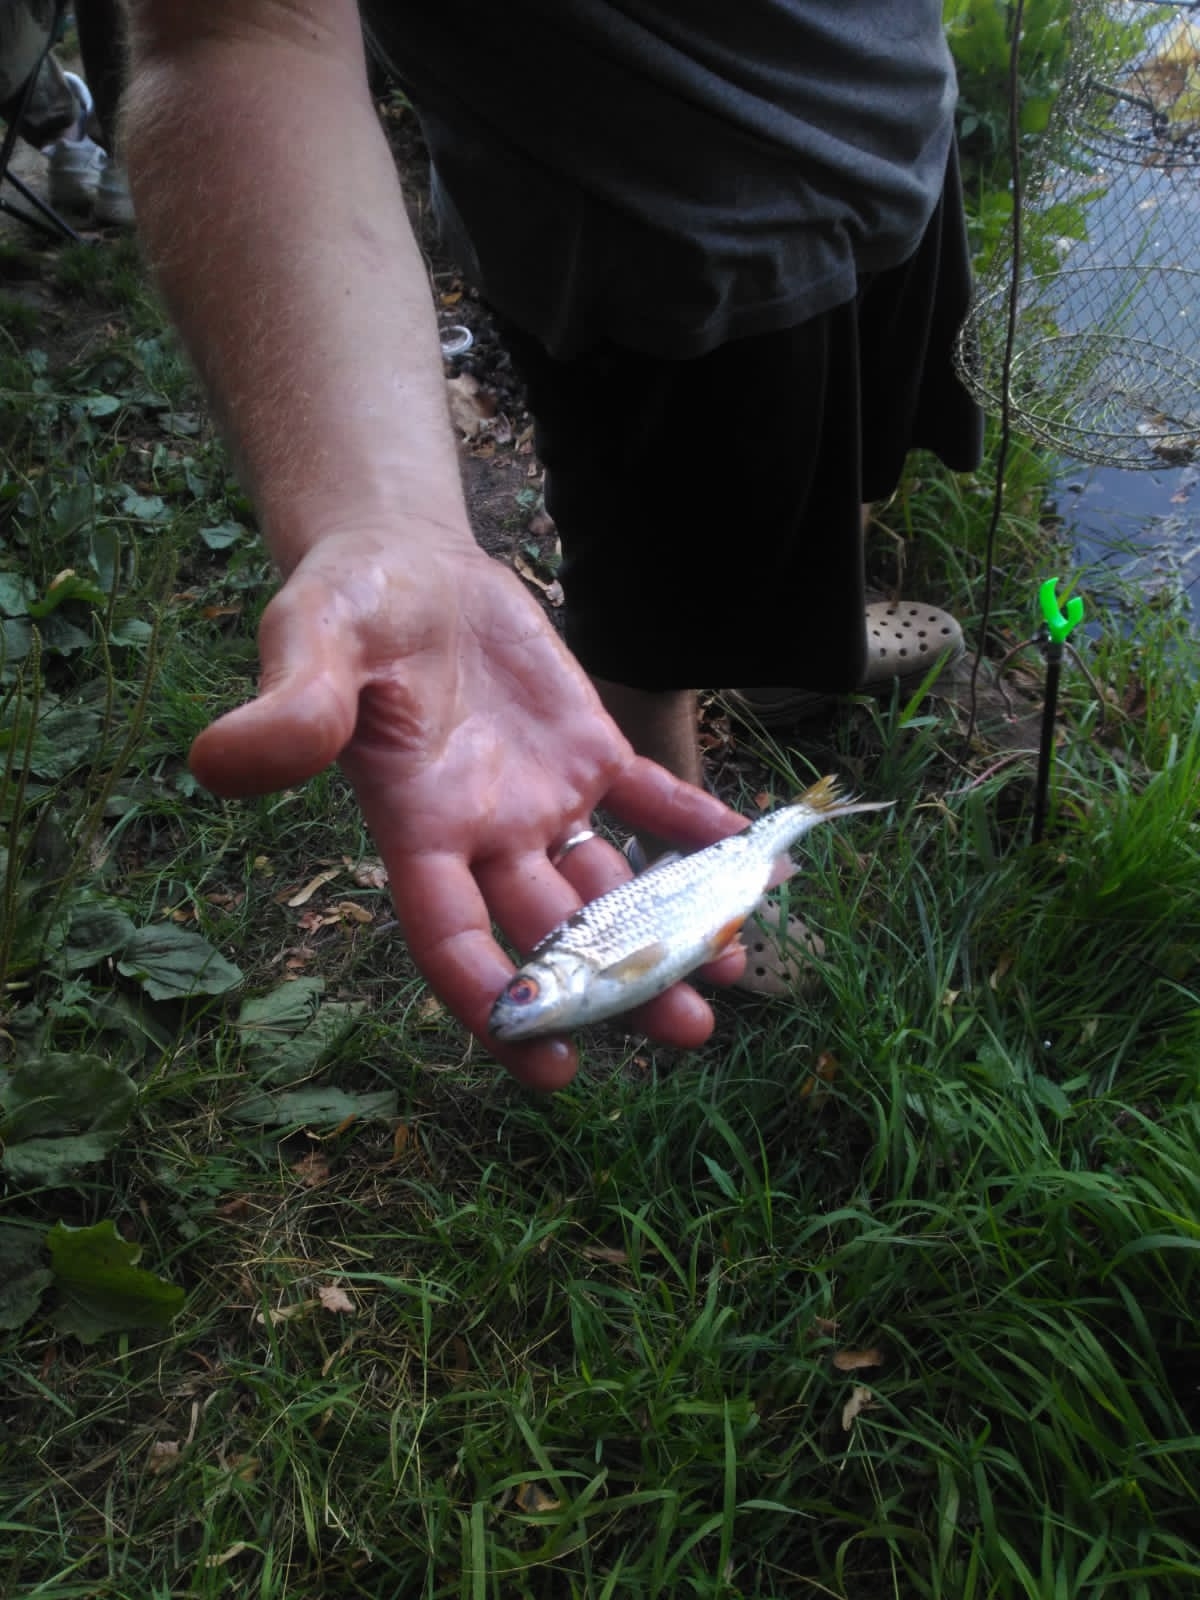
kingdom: Animalia
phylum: Chordata
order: Cypriniformes
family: Cyprinidae
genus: Rutilus
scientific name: Rutilus rutilus
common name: Roach
